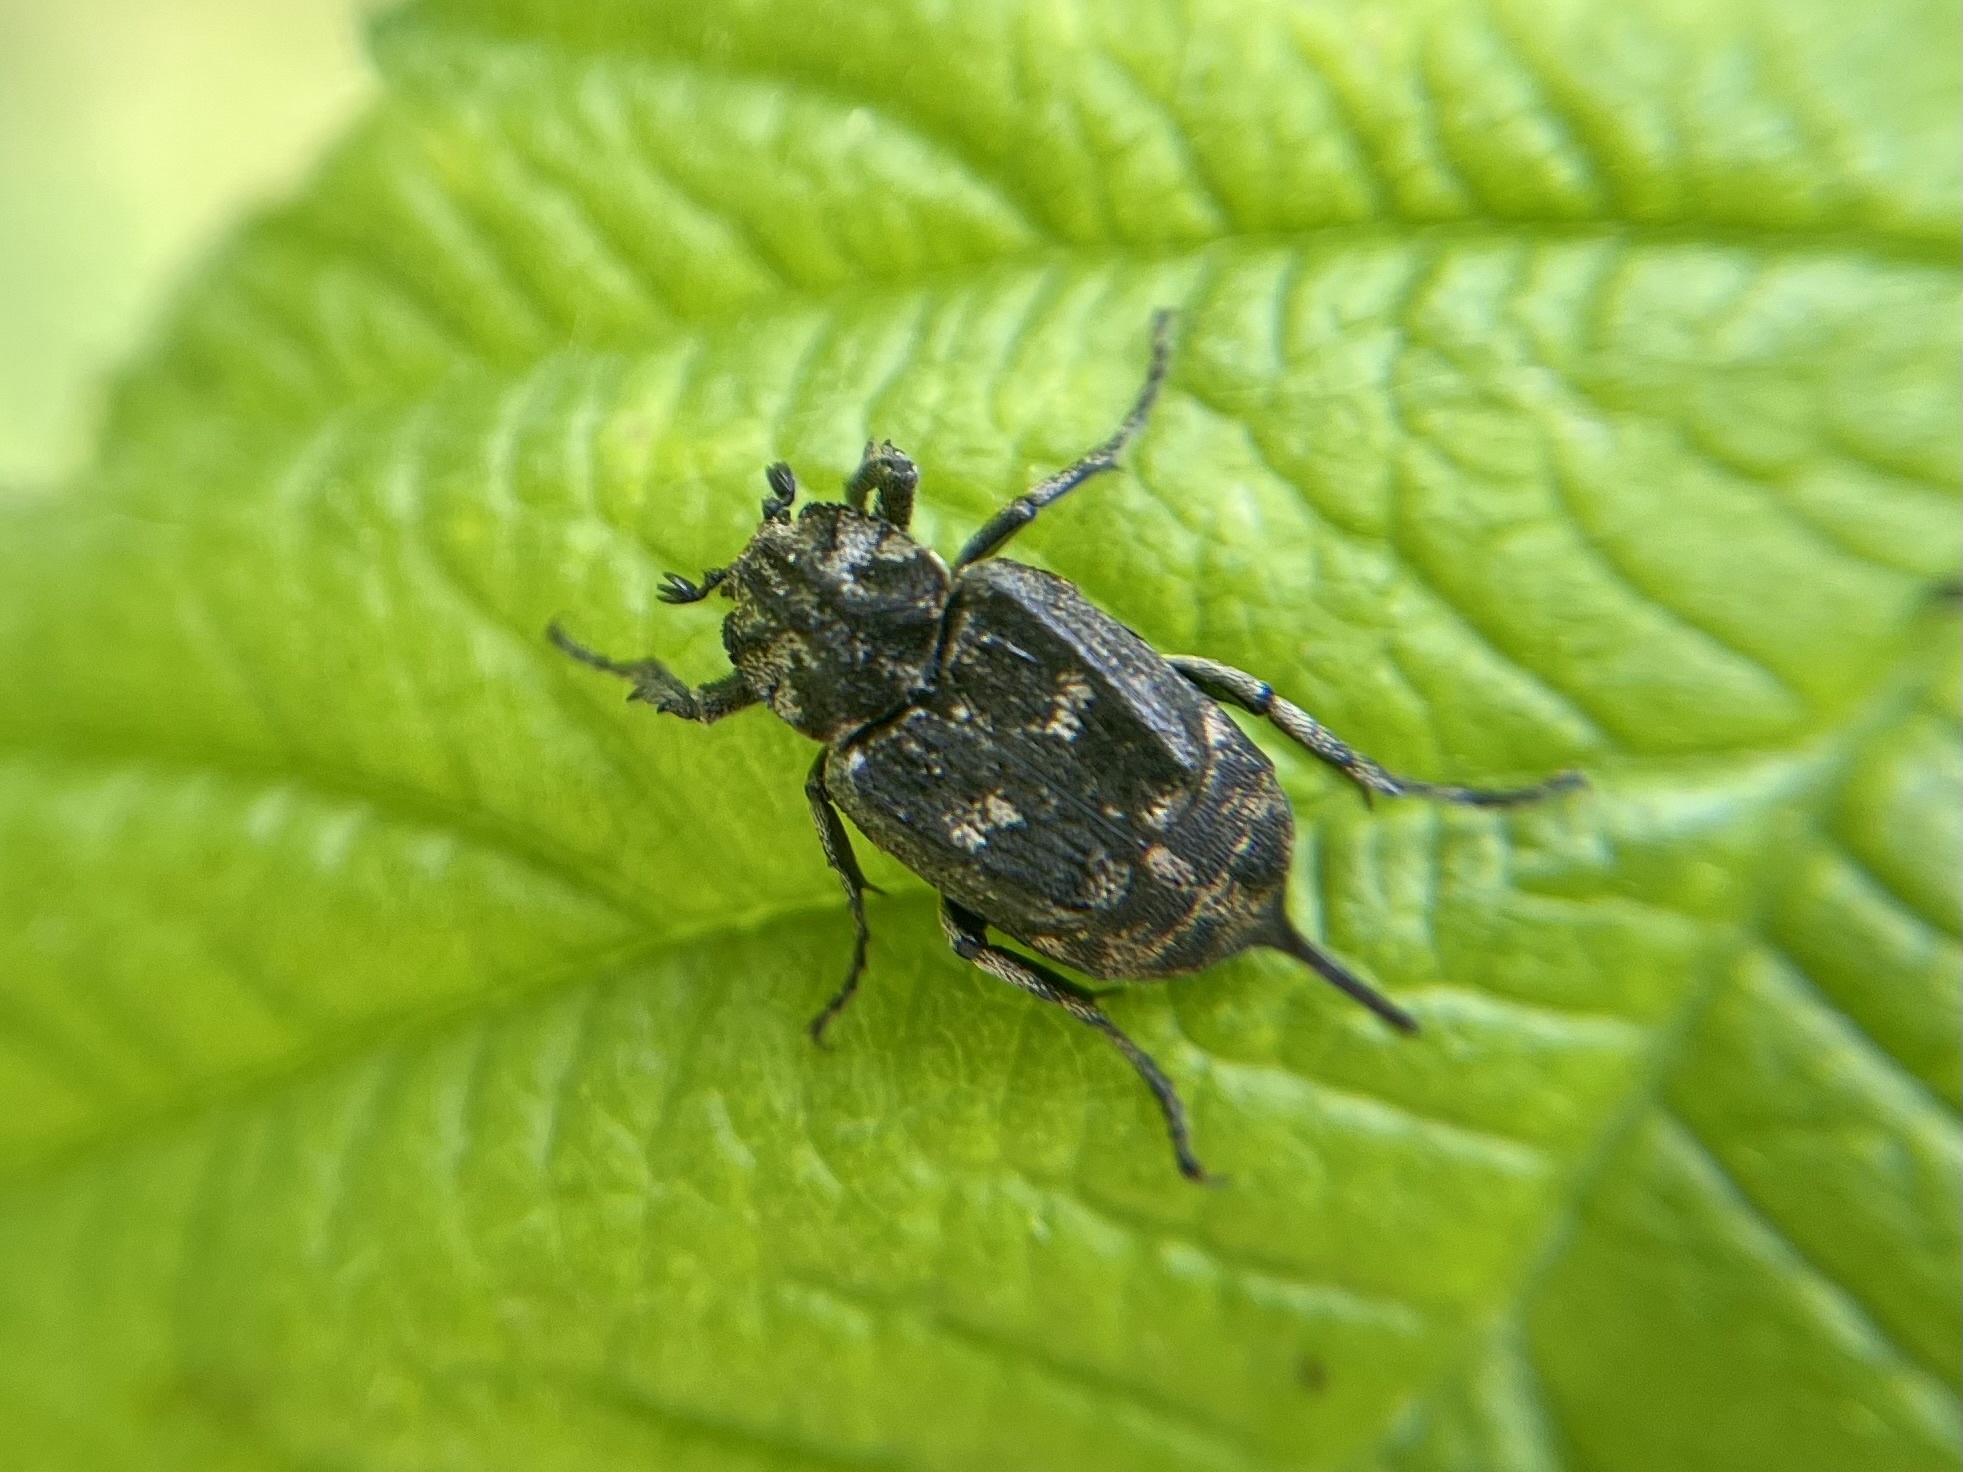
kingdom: Animalia
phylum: Arthropoda
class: Insecta
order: Coleoptera
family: Scarabaeidae
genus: Valgus
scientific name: Valgus hemipterus
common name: Bug flower chafer
